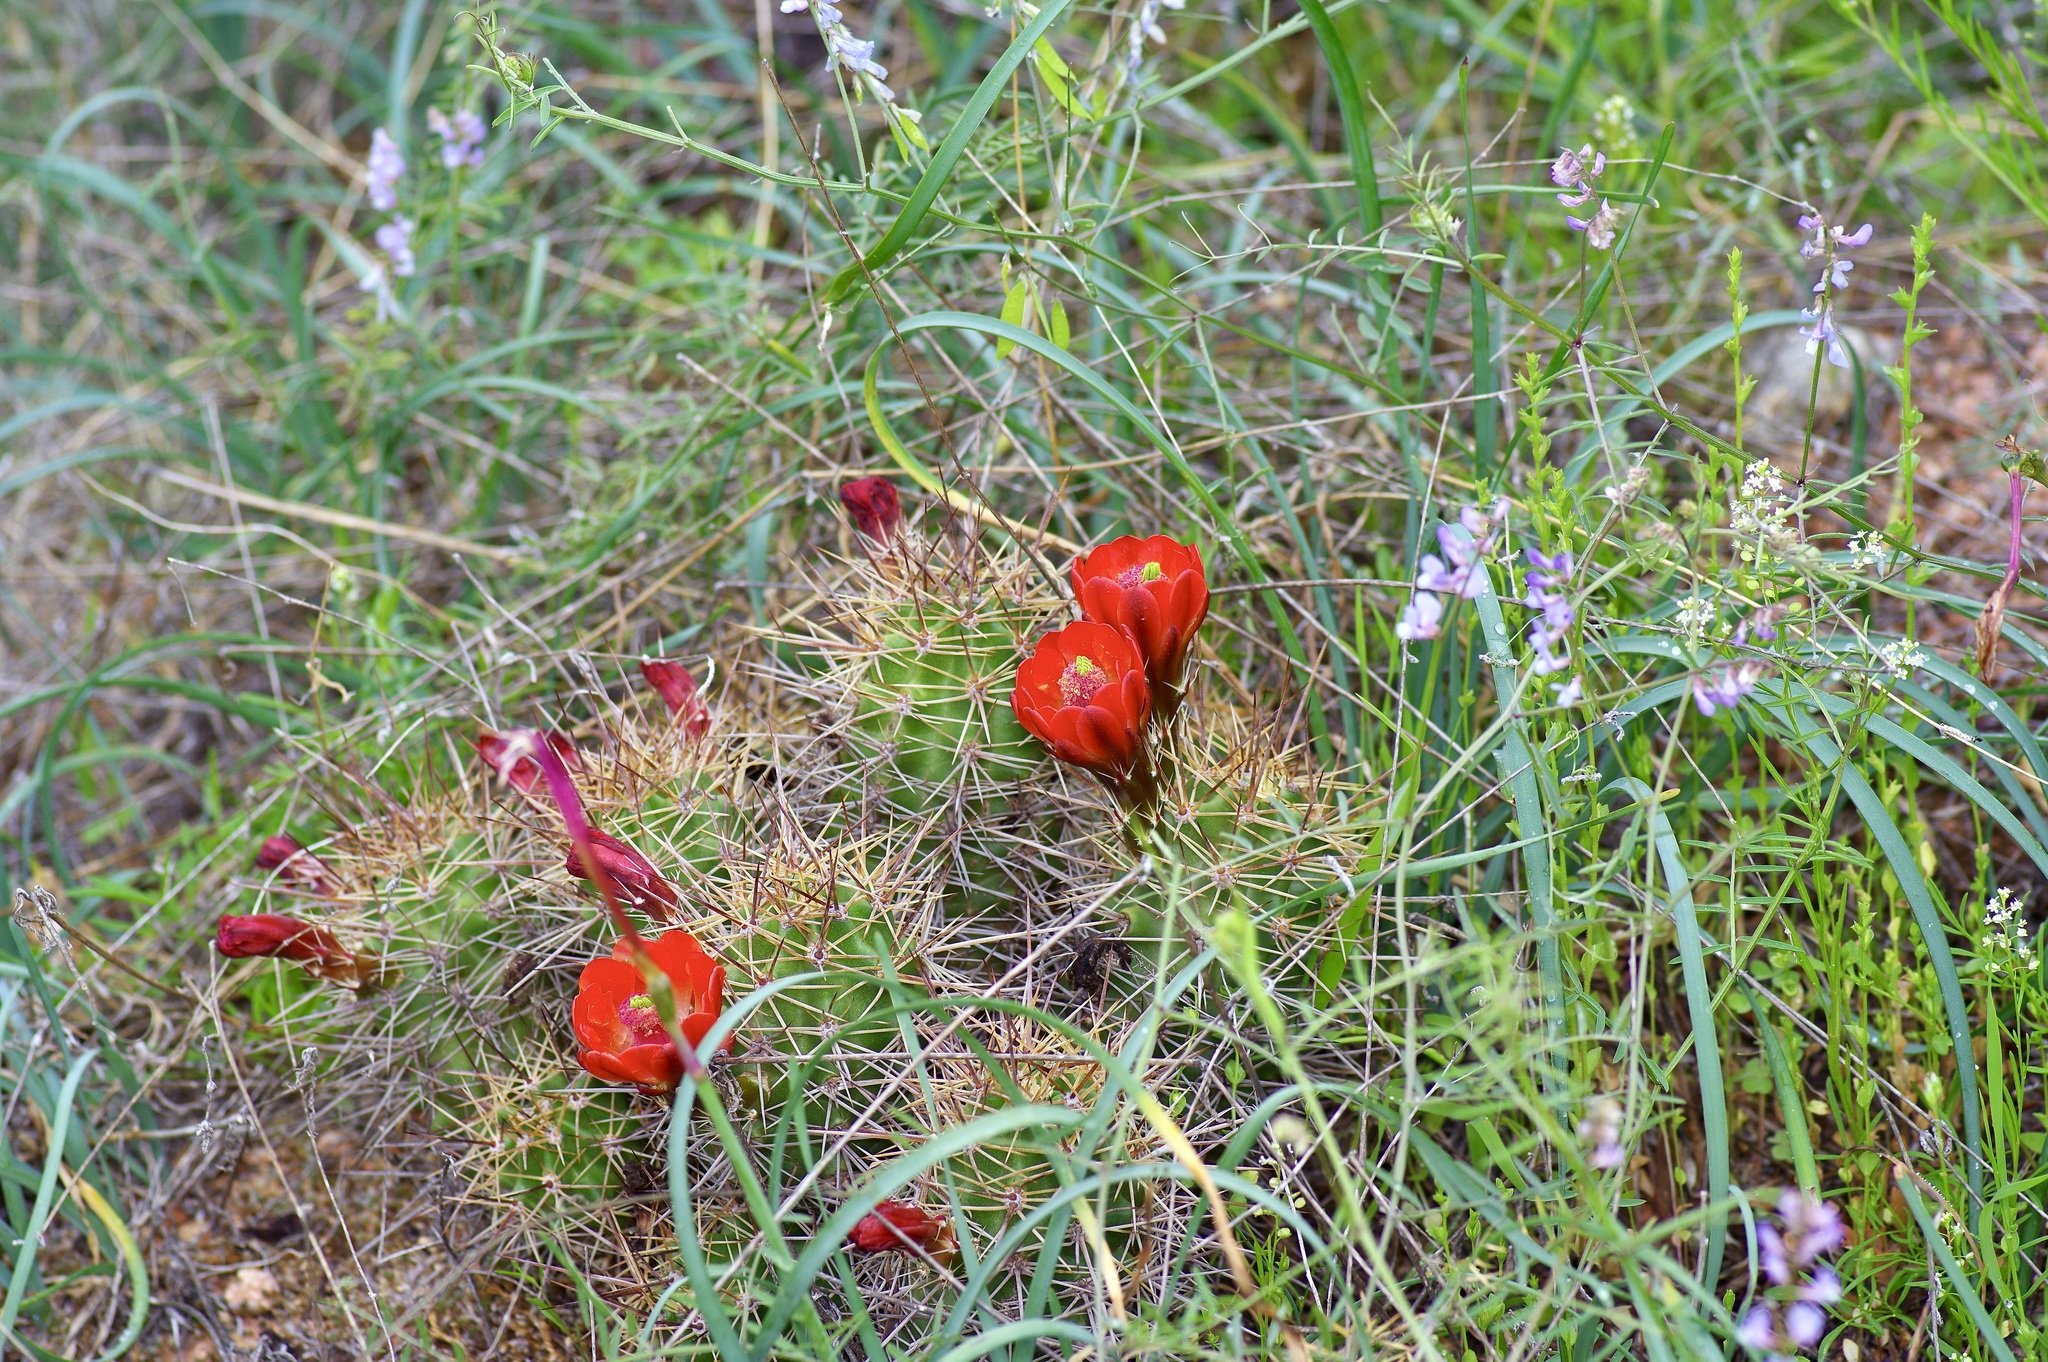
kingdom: Plantae
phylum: Tracheophyta
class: Magnoliopsida
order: Caryophyllales
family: Cactaceae
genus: Echinocereus
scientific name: Echinocereus coccineus
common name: Scarlet hedgehog cactus
